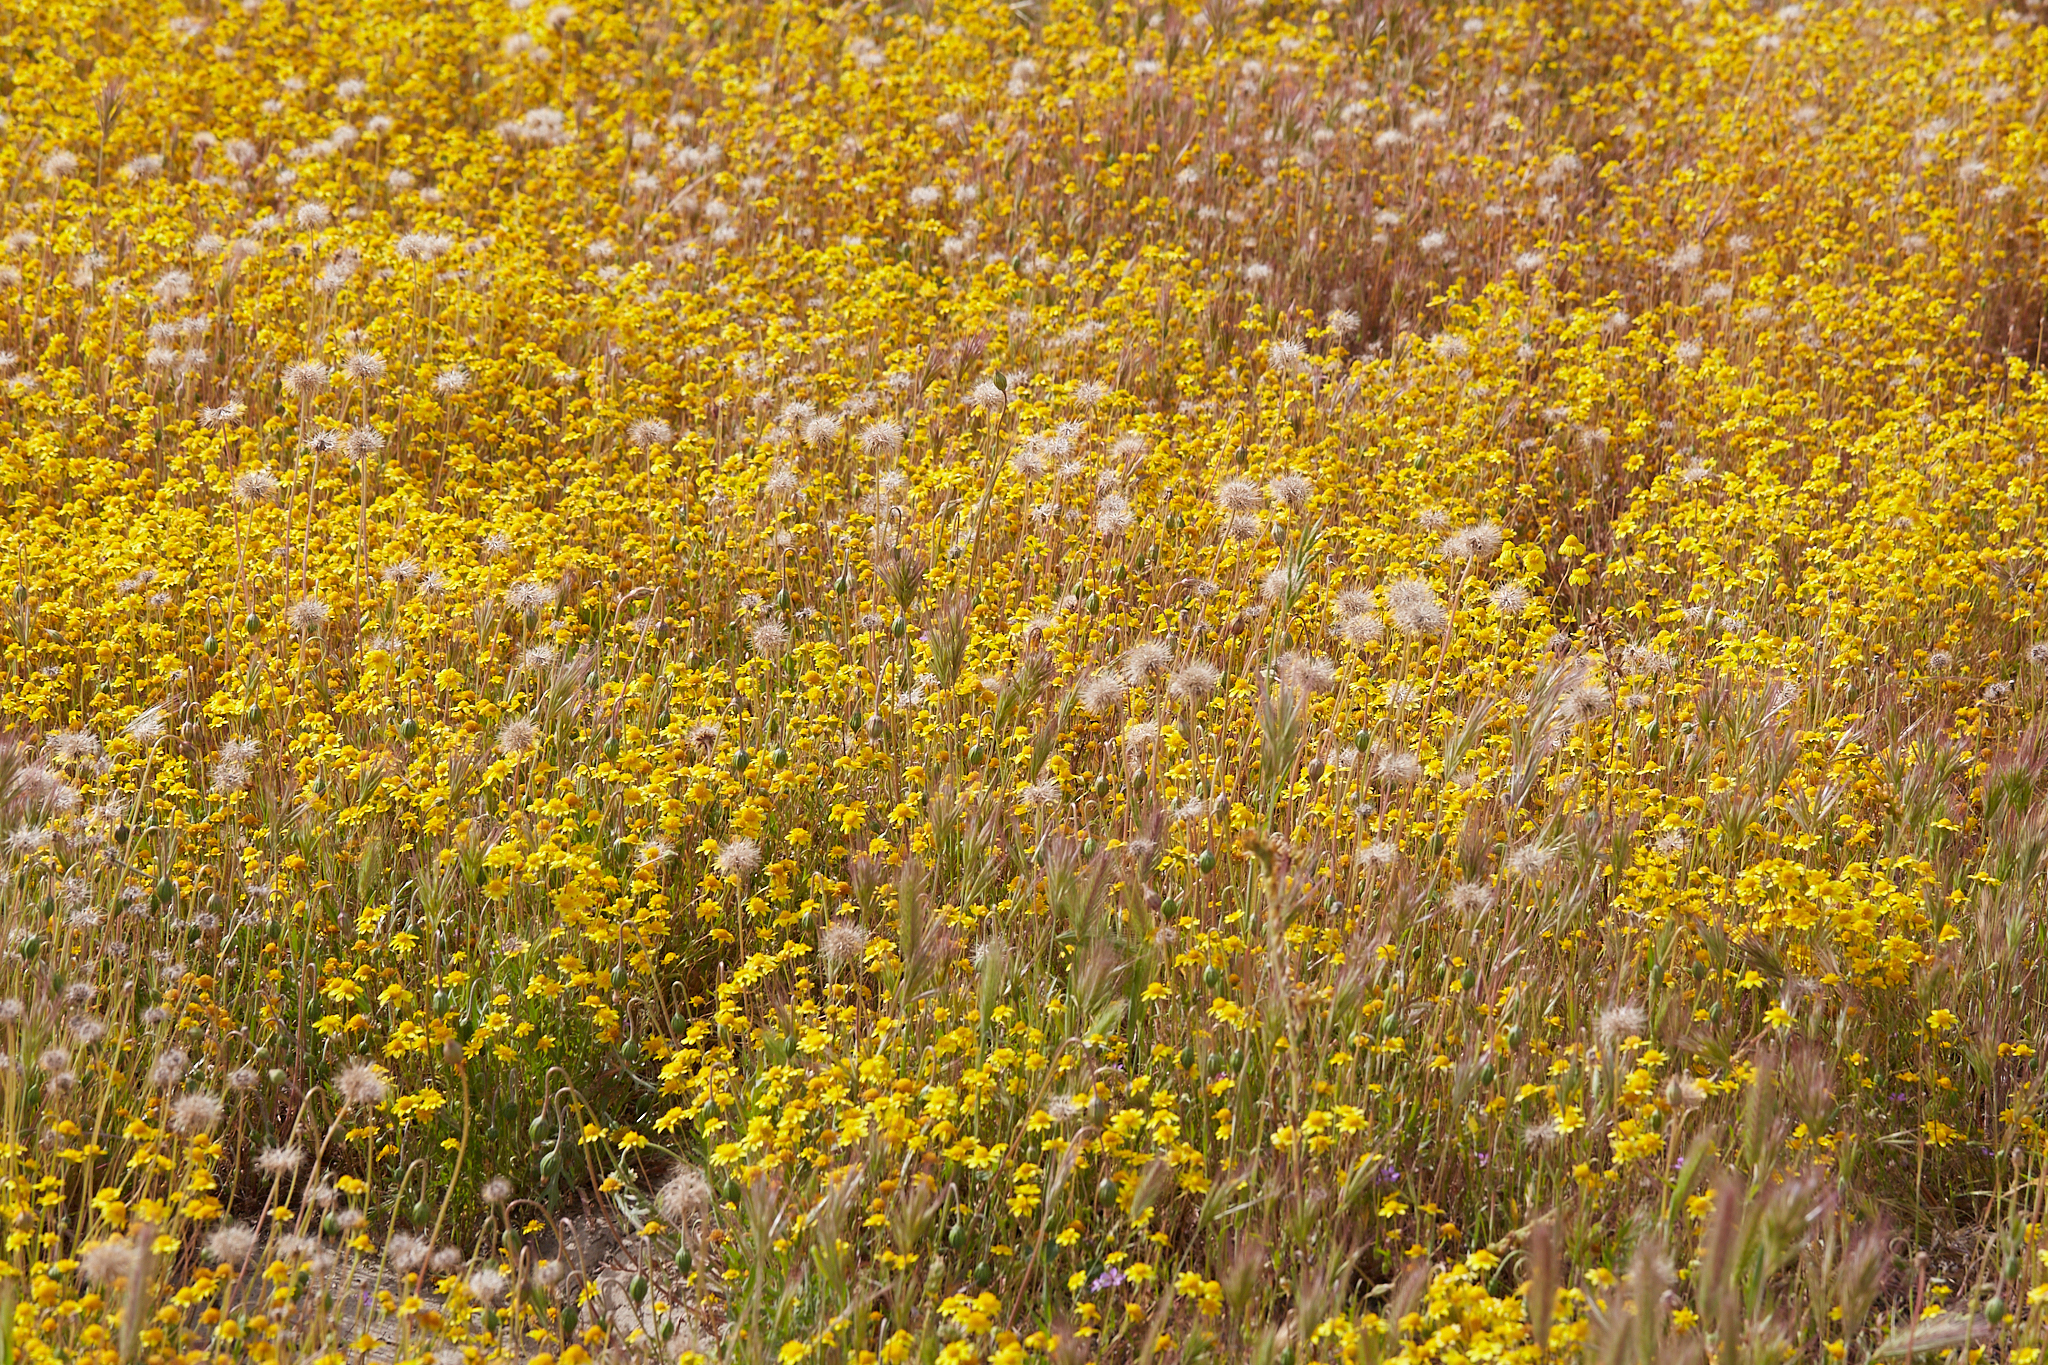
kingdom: Plantae
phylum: Tracheophyta
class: Magnoliopsida
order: Asterales
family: Asteraceae
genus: Microseris
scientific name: Microseris campestris
